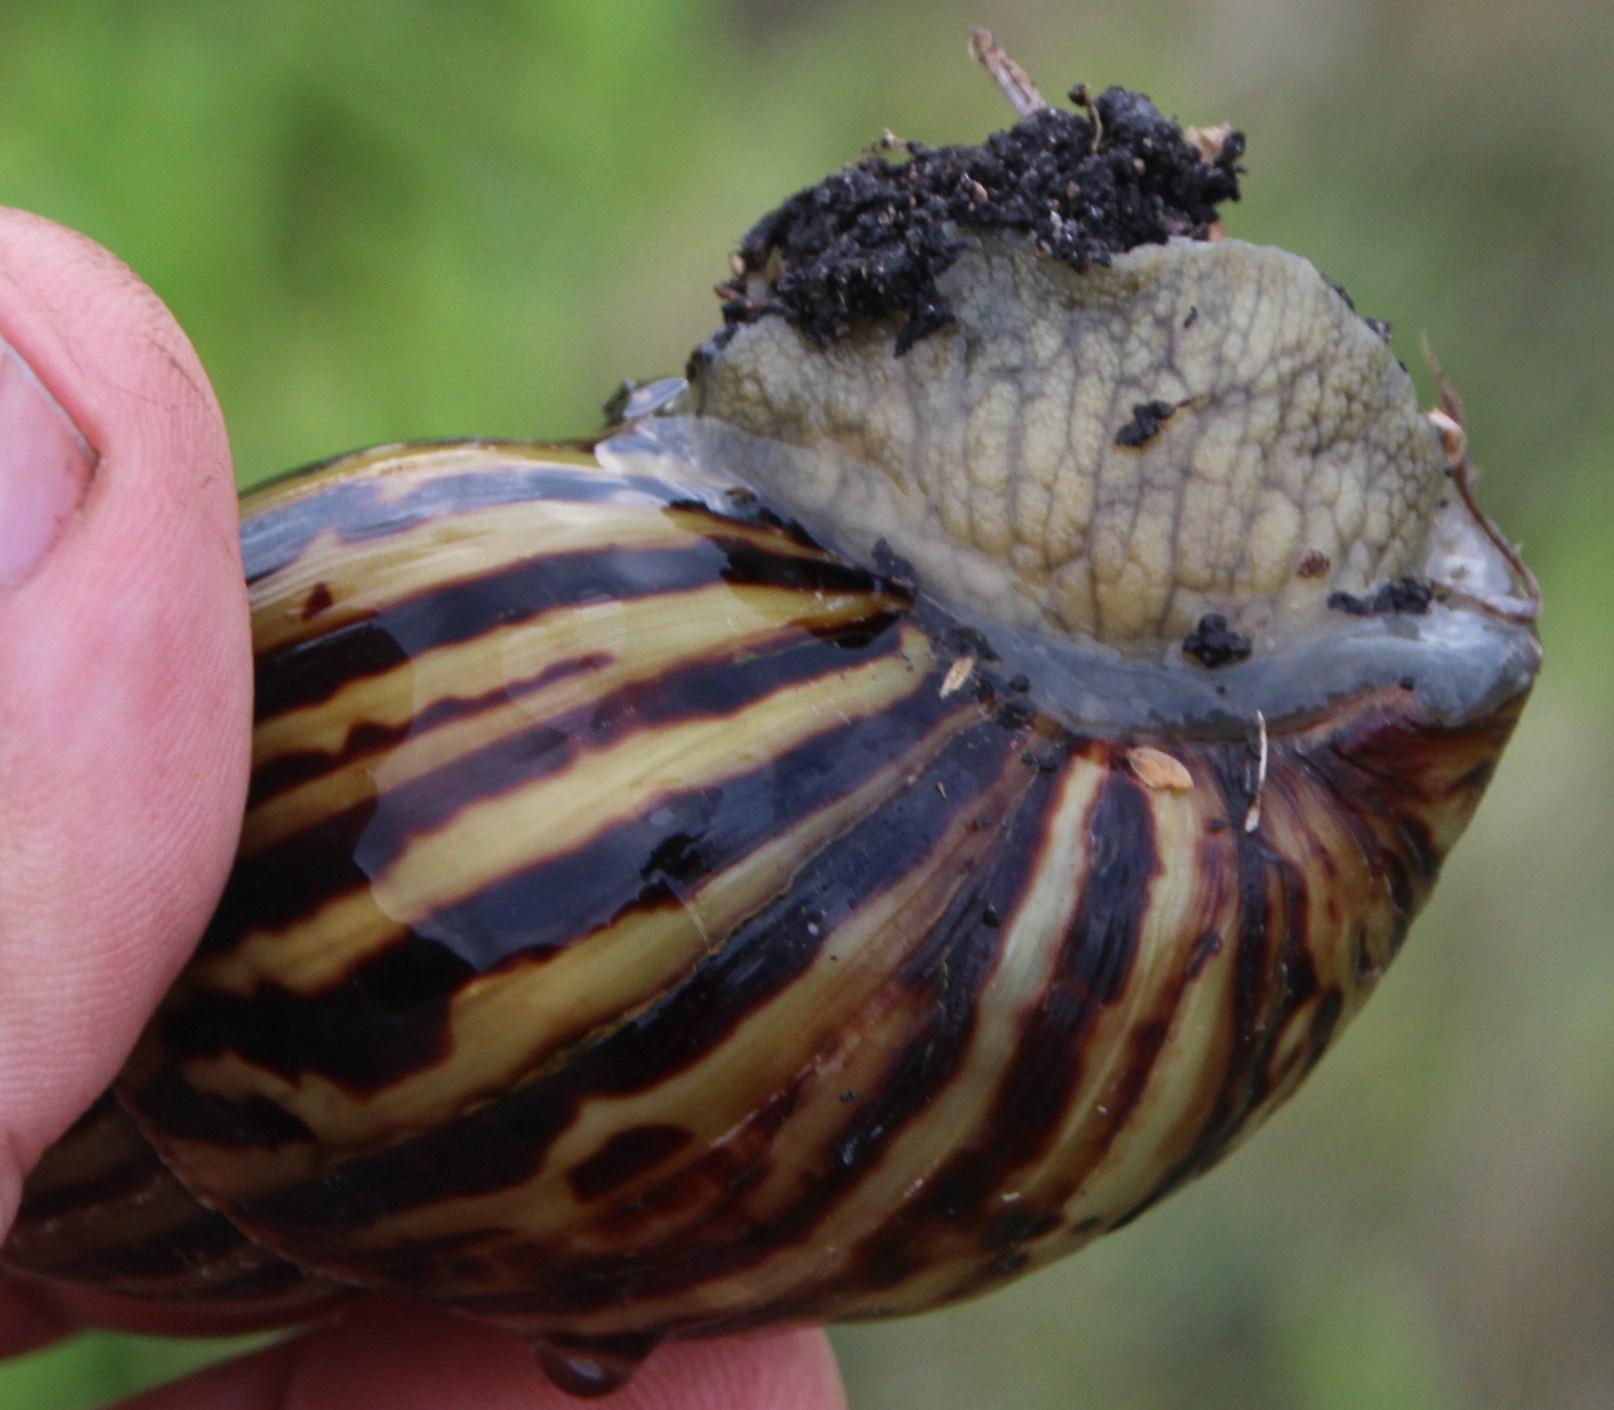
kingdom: Animalia
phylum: Mollusca
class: Gastropoda
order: Stylommatophora
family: Achatinidae
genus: Cochlitoma
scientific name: Cochlitoma zebra
